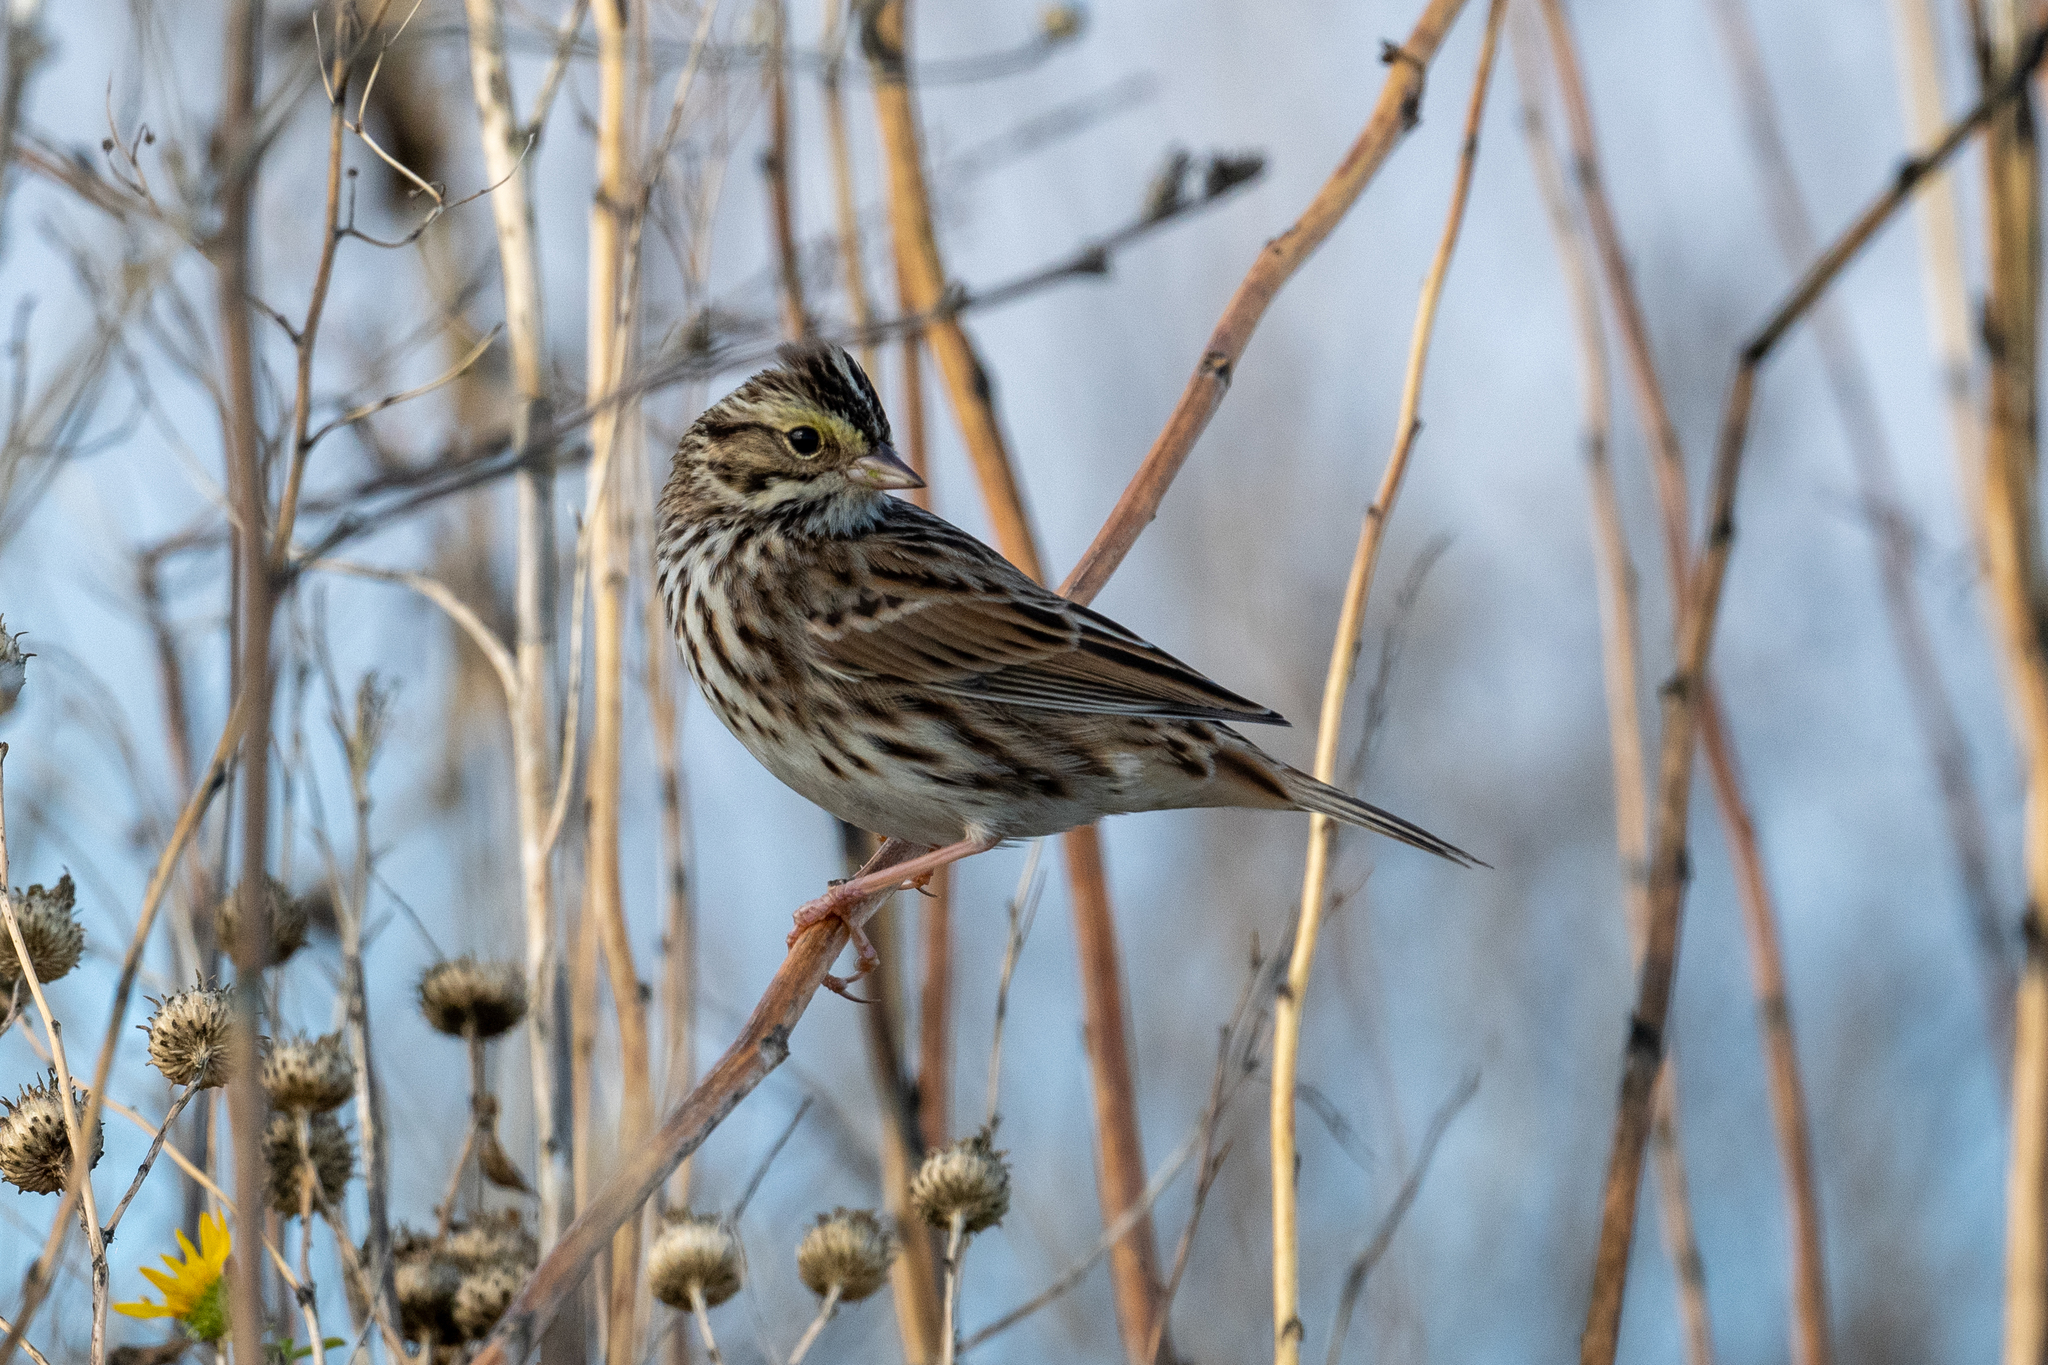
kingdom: Animalia
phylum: Chordata
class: Aves
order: Passeriformes
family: Passerellidae
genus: Passerculus
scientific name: Passerculus sandwichensis
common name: Savannah sparrow
